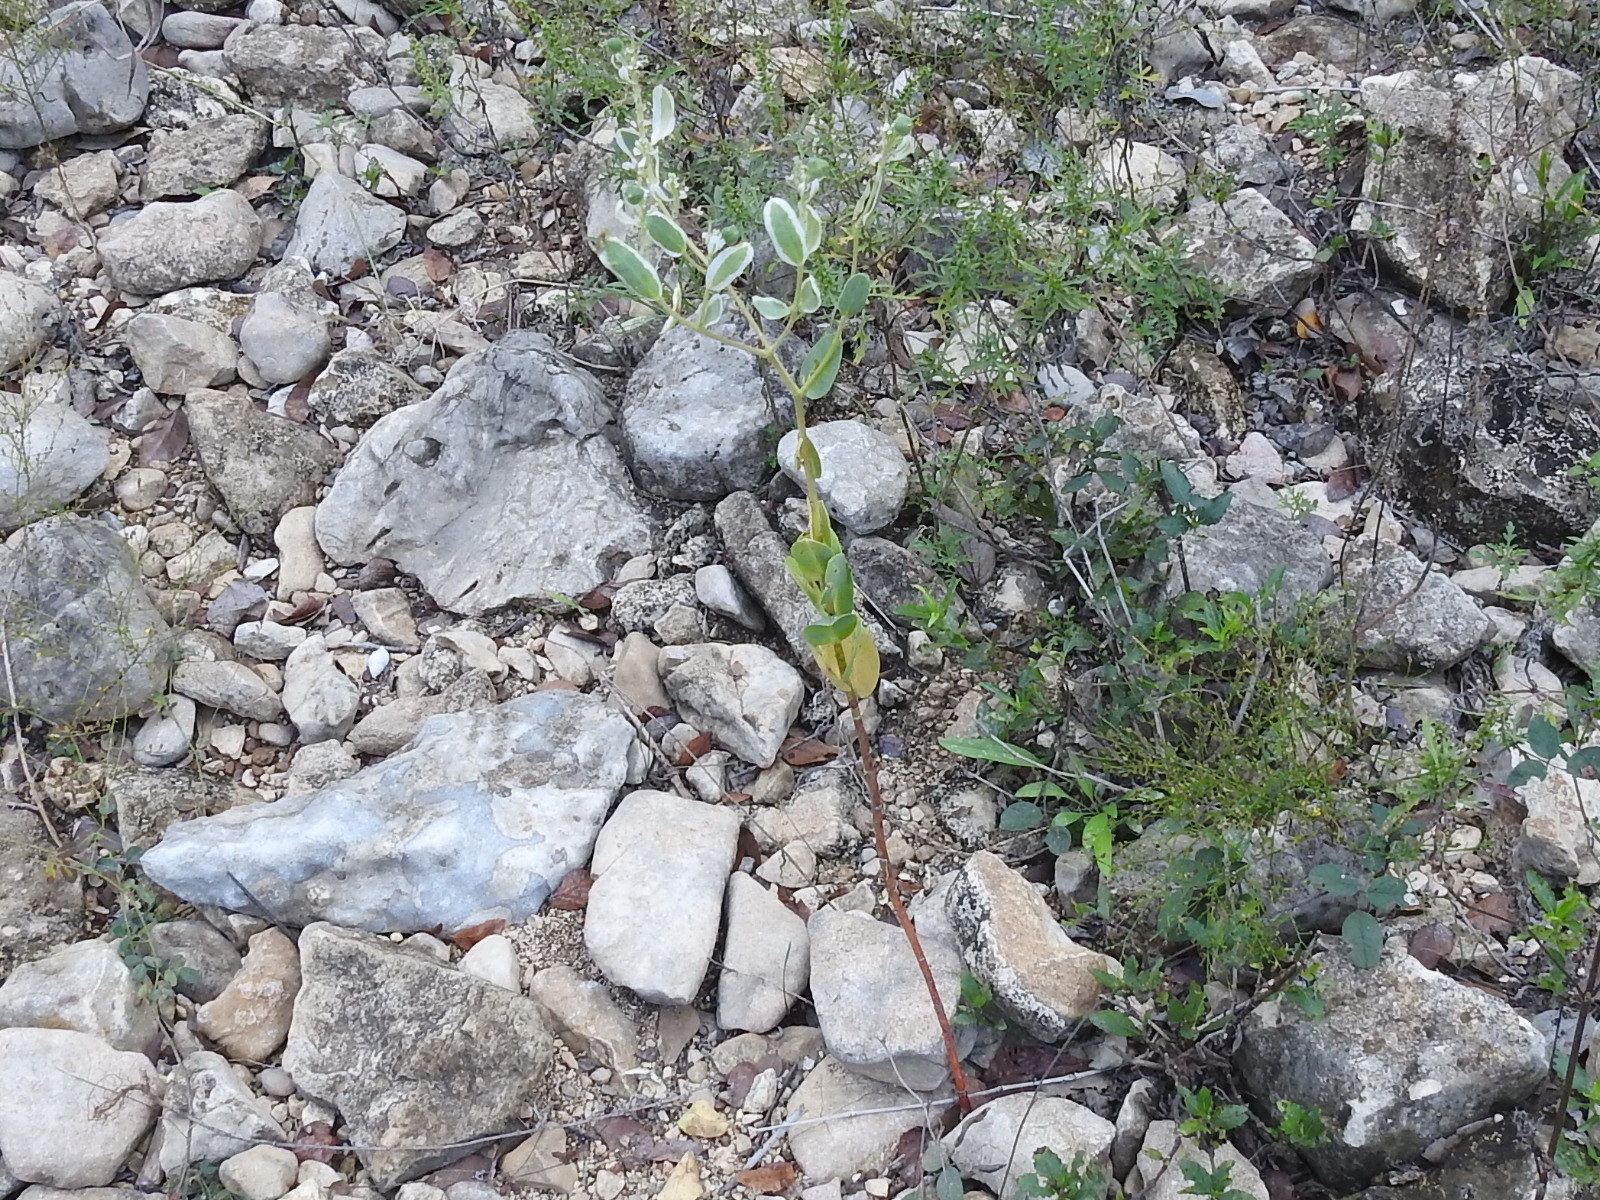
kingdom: Plantae
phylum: Tracheophyta
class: Magnoliopsida
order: Malpighiales
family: Euphorbiaceae
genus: Euphorbia
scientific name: Euphorbia marginata
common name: Ghostweed
